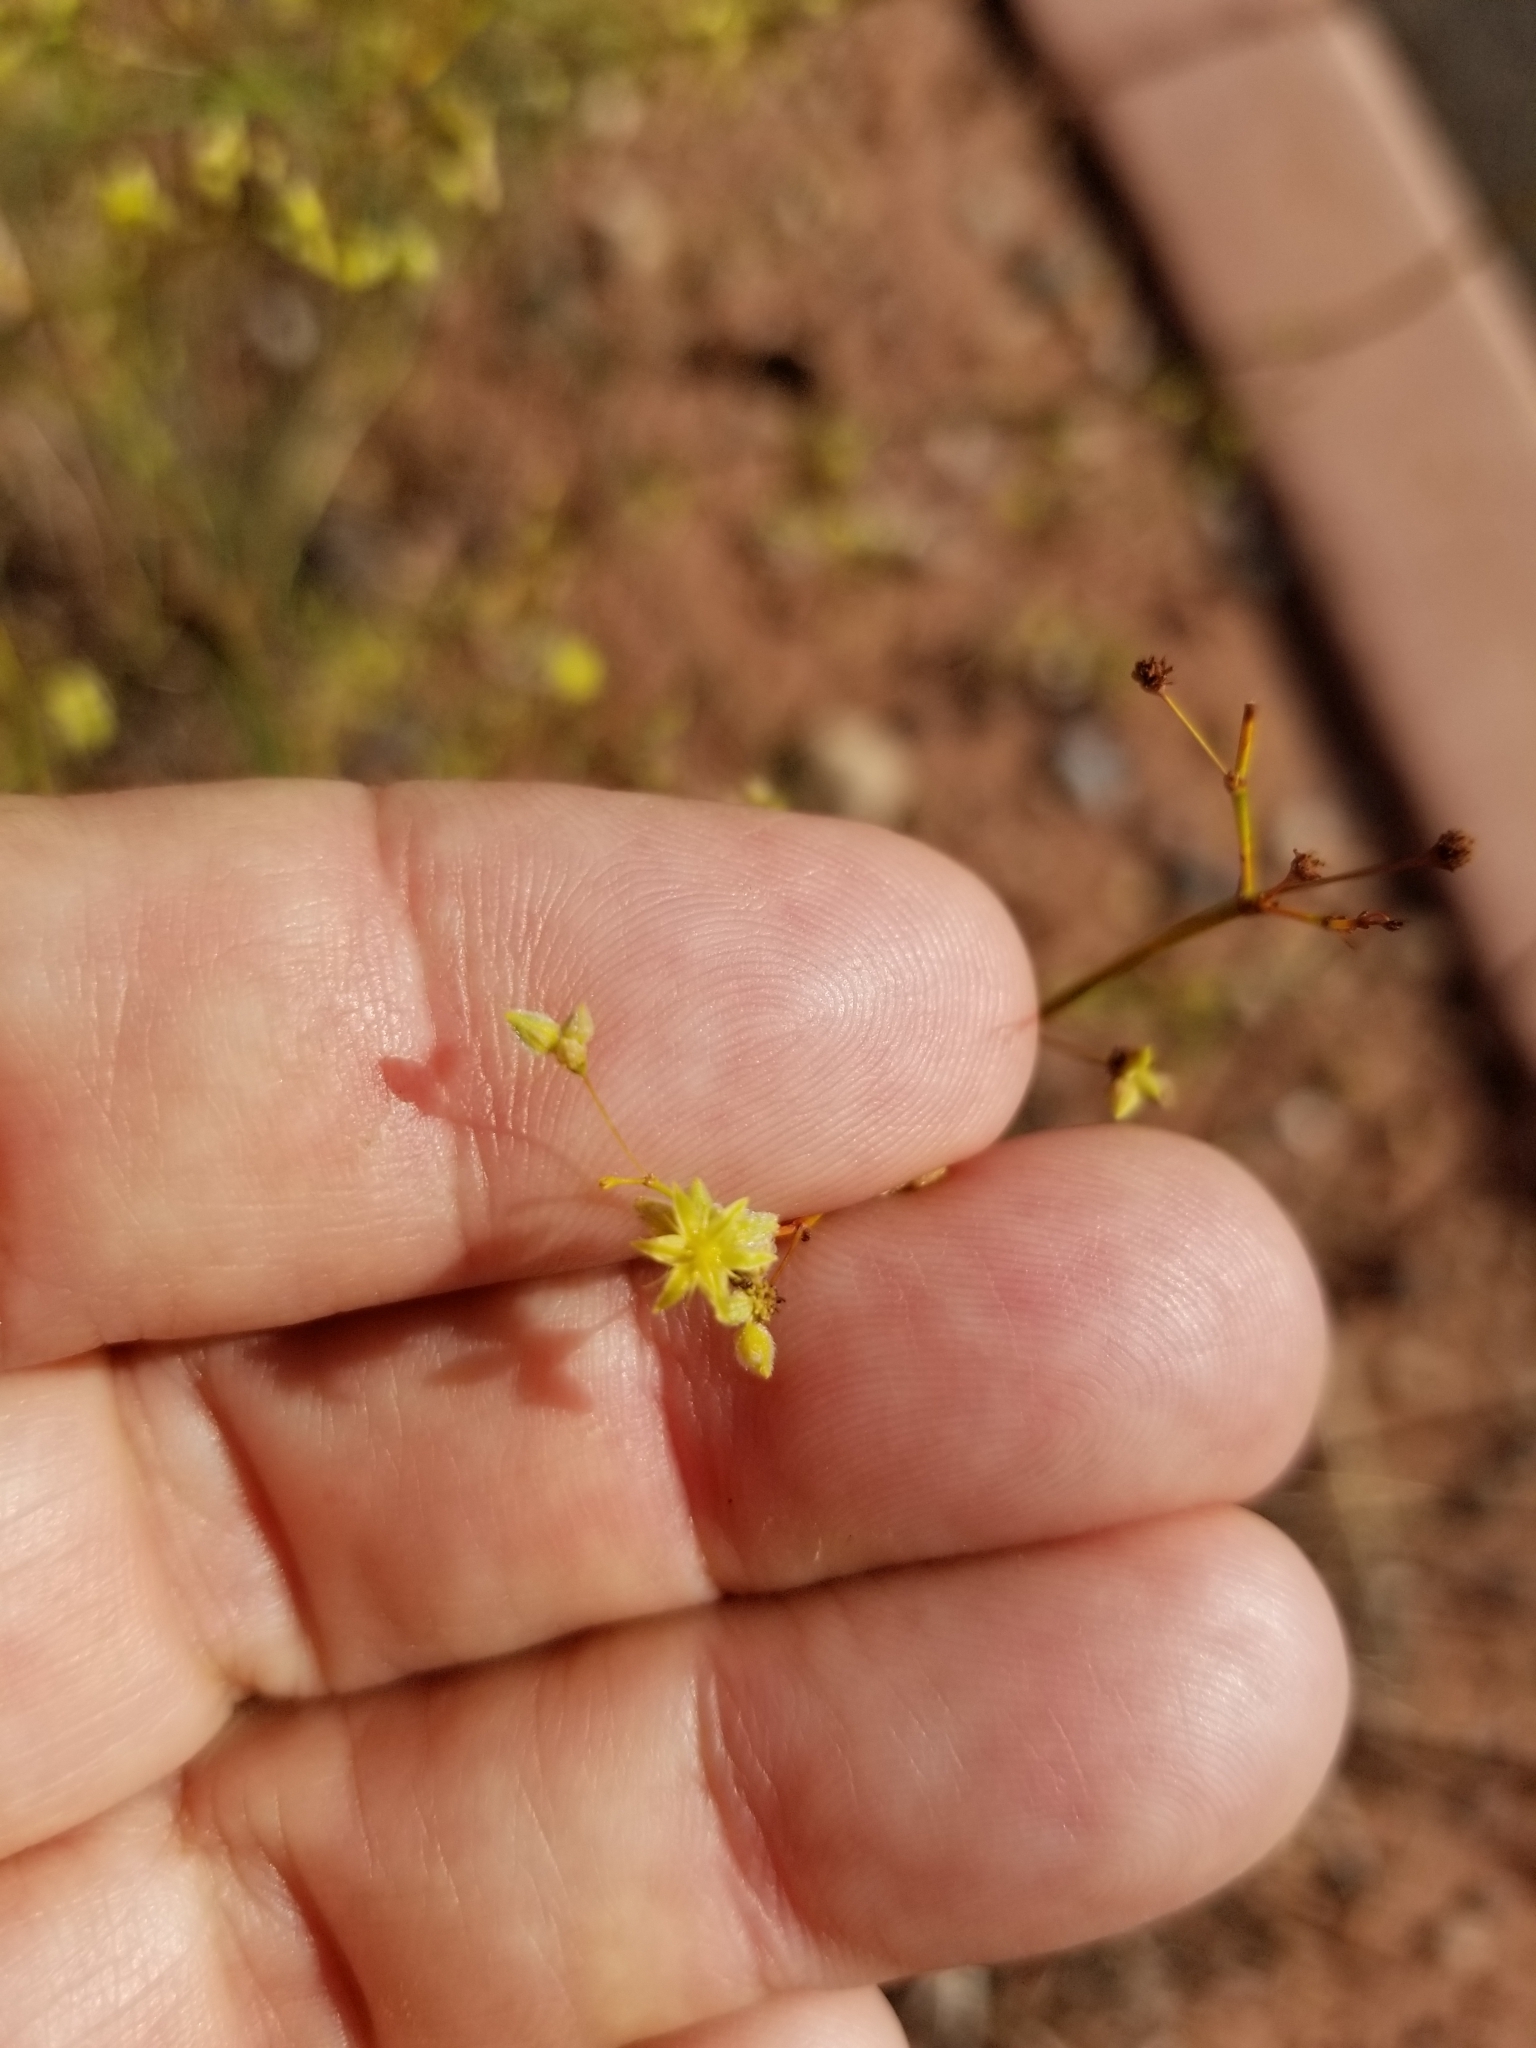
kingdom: Plantae
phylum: Tracheophyta
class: Magnoliopsida
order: Caryophyllales
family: Polygonaceae
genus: Eriogonum
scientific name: Eriogonum inflatum
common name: Desert trumpet
